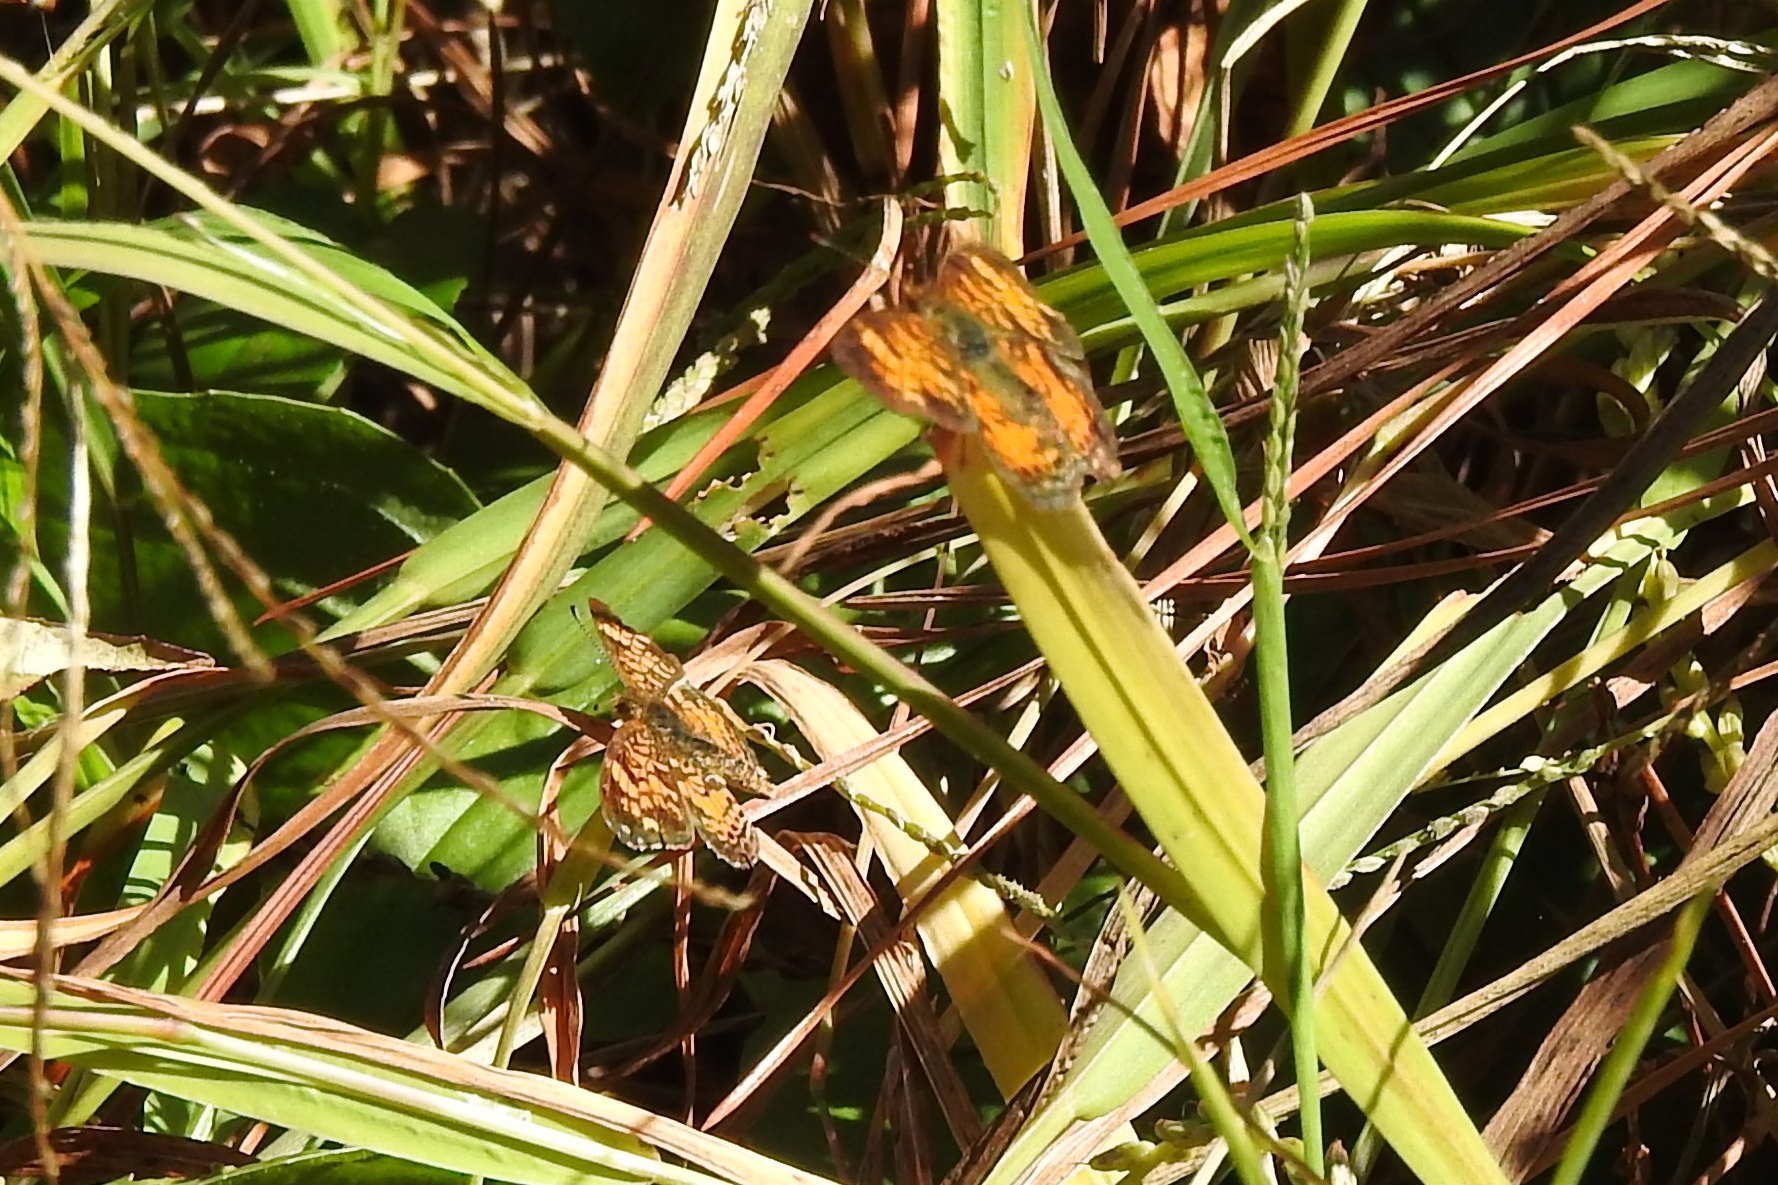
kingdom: Animalia
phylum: Arthropoda
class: Insecta
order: Lepidoptera
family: Nymphalidae
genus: Phyciodes
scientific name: Phyciodes tharos
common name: Pearl crescent
